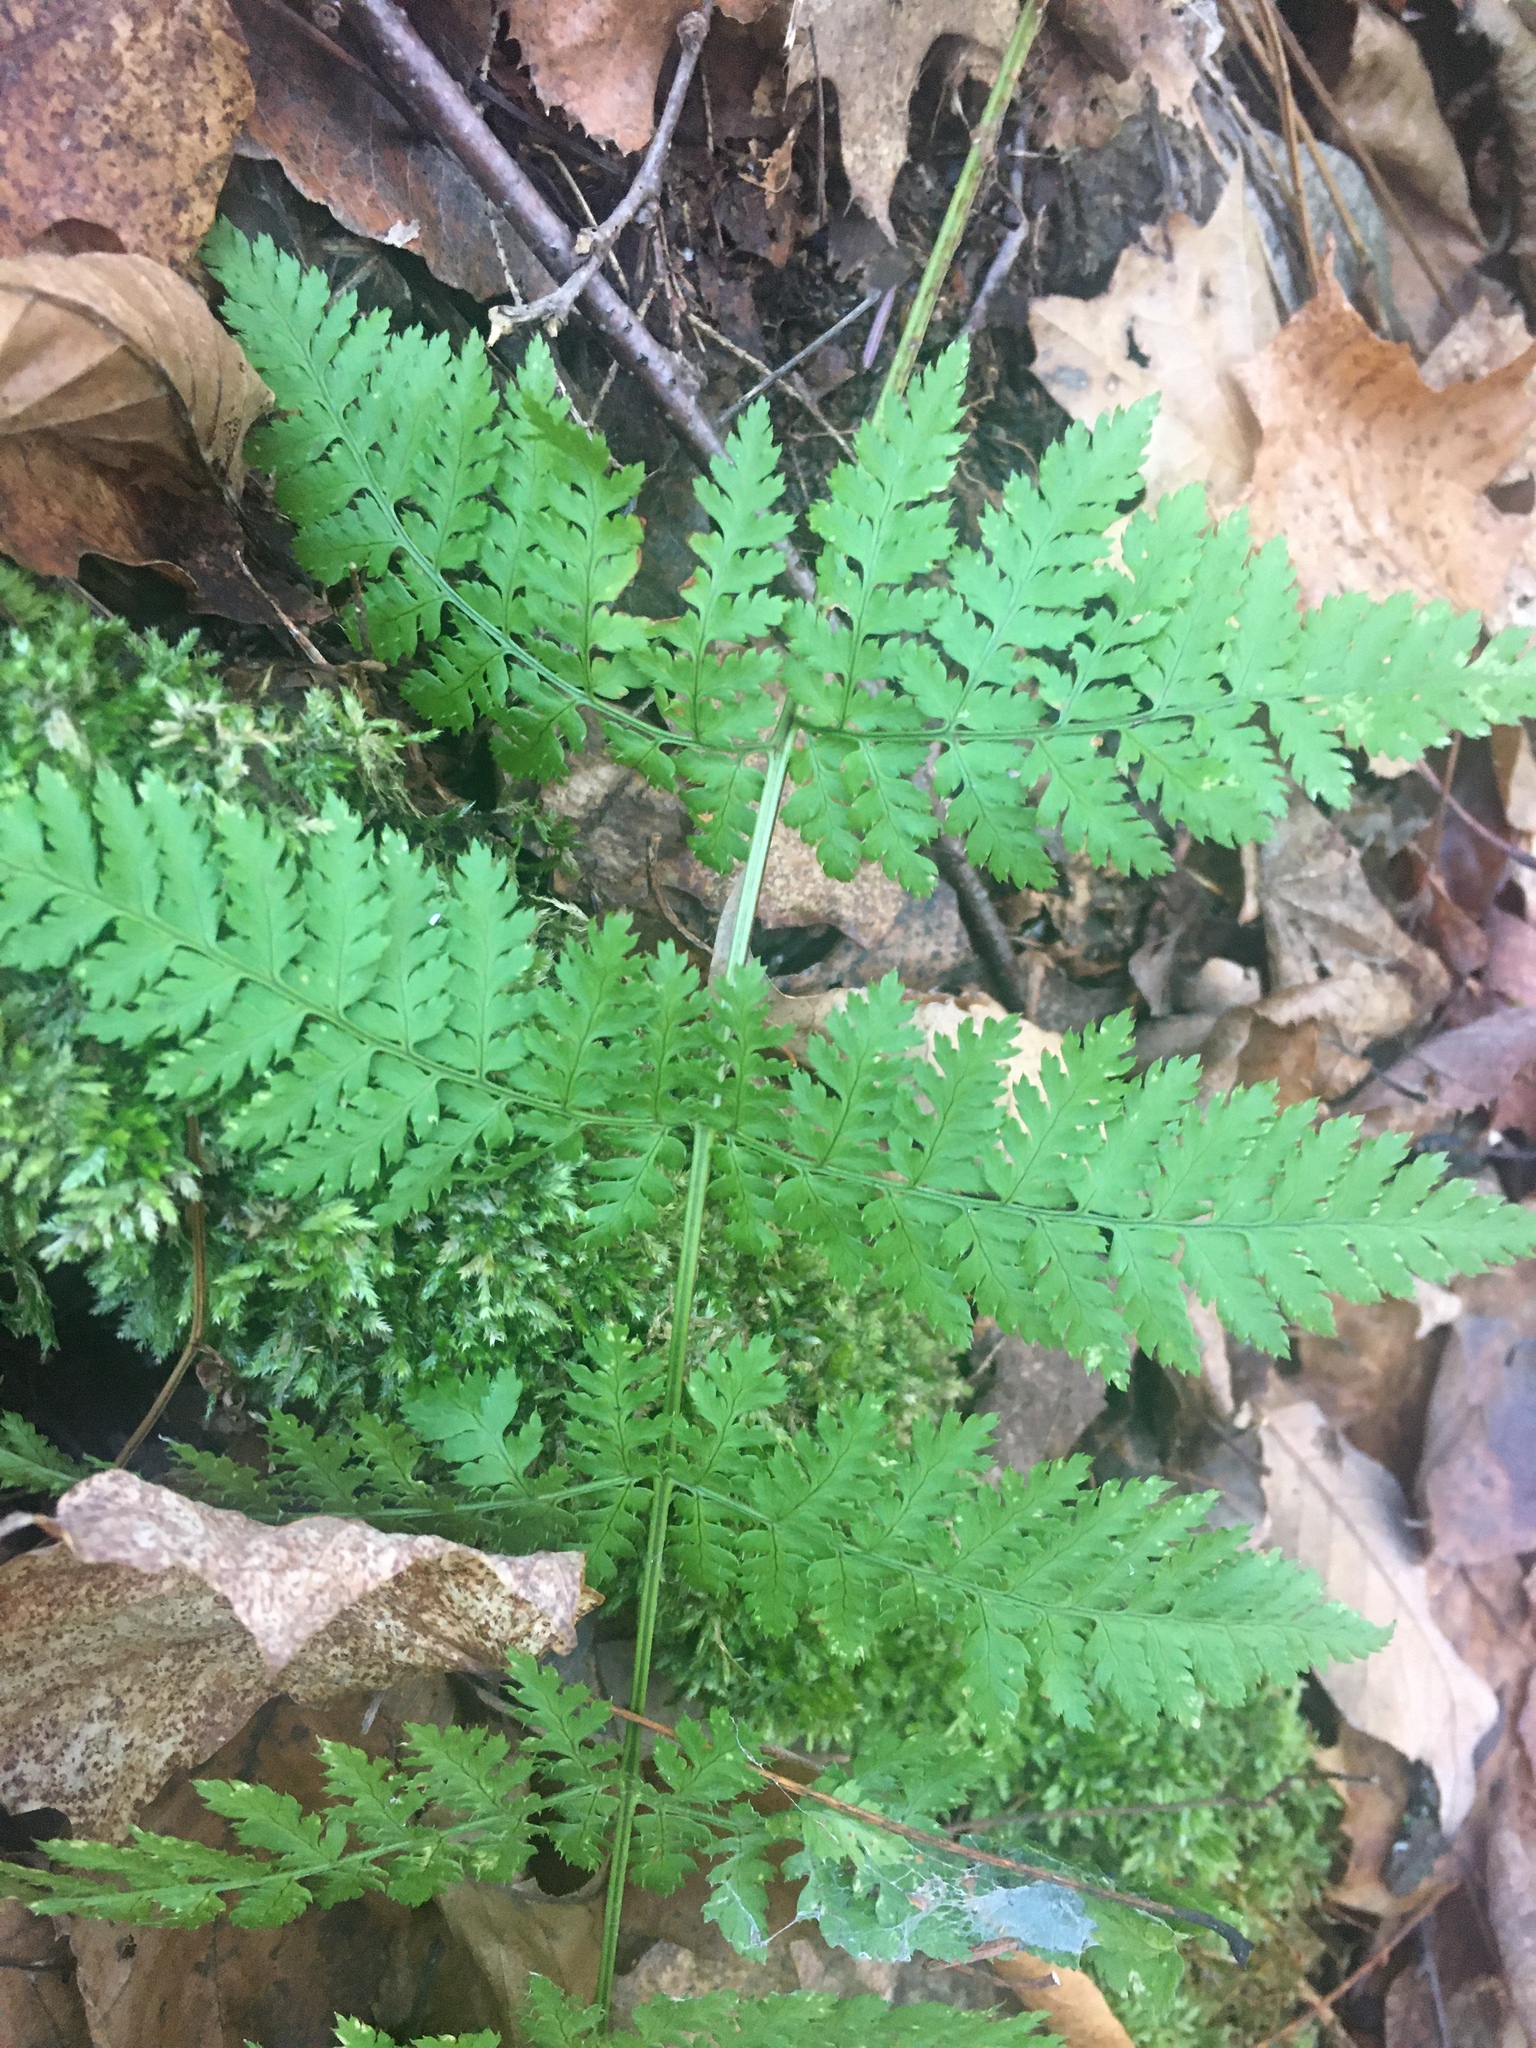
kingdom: Plantae
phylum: Tracheophyta
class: Polypodiopsida
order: Polypodiales
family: Dryopteridaceae
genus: Dryopteris
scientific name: Dryopteris intermedia
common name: Evergreen wood fern
